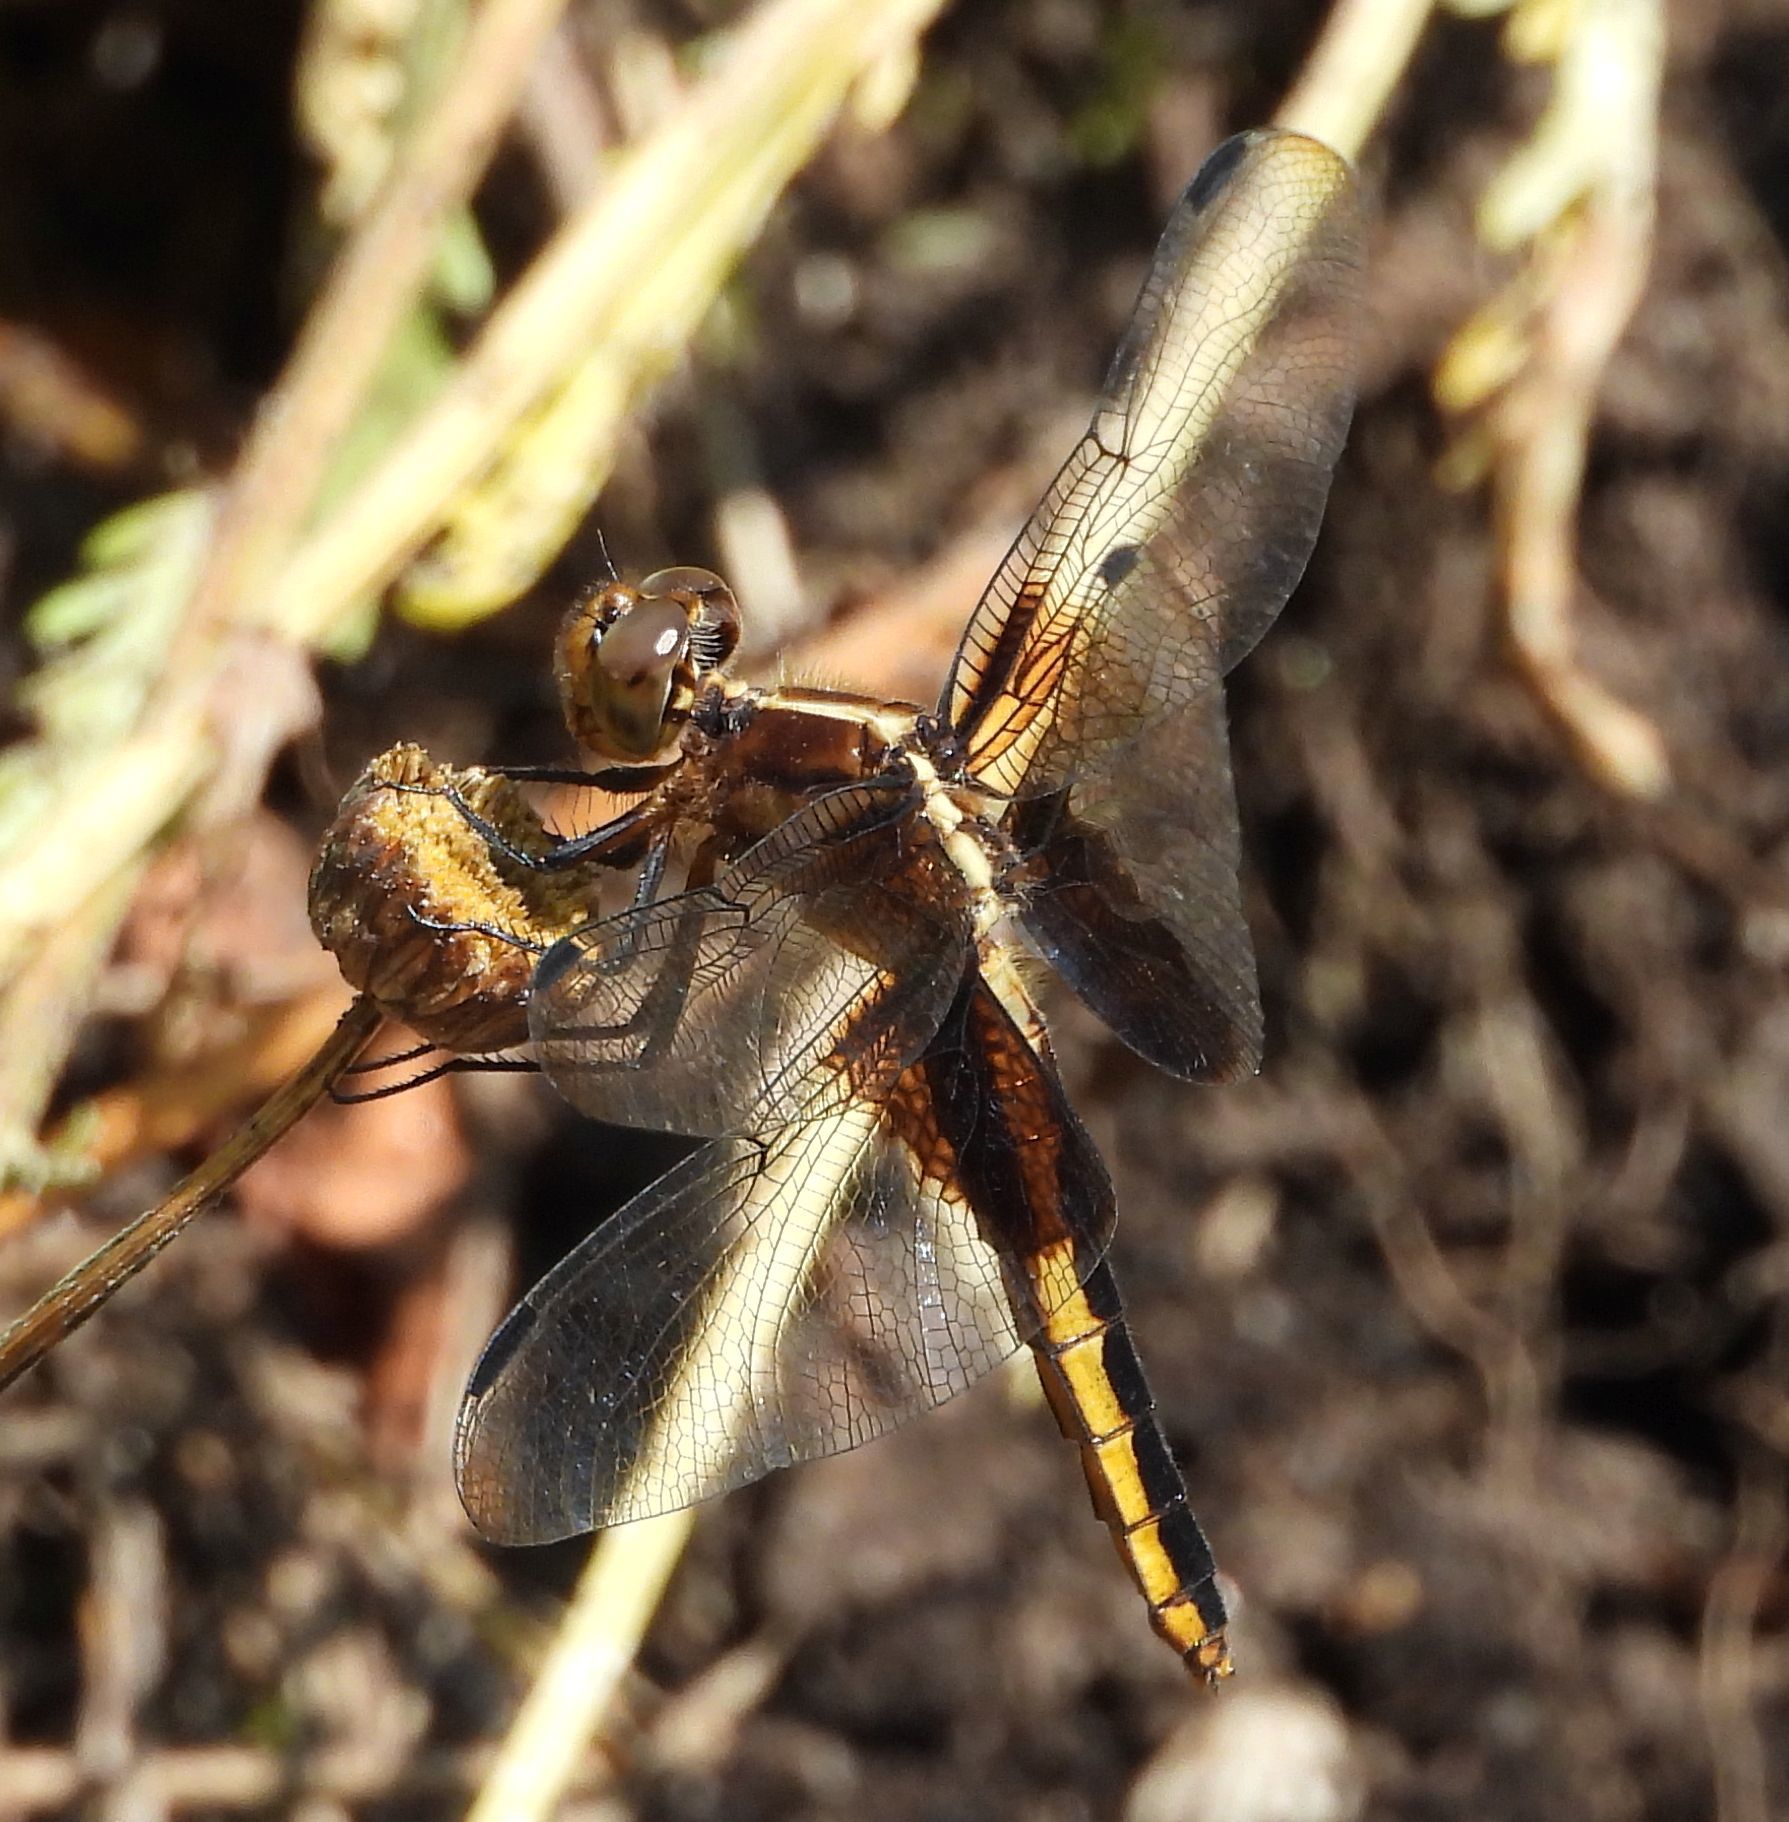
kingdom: Animalia
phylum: Arthropoda
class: Insecta
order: Odonata
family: Libellulidae
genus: Libellula
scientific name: Libellula luctuosa
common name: Widow skimmer
